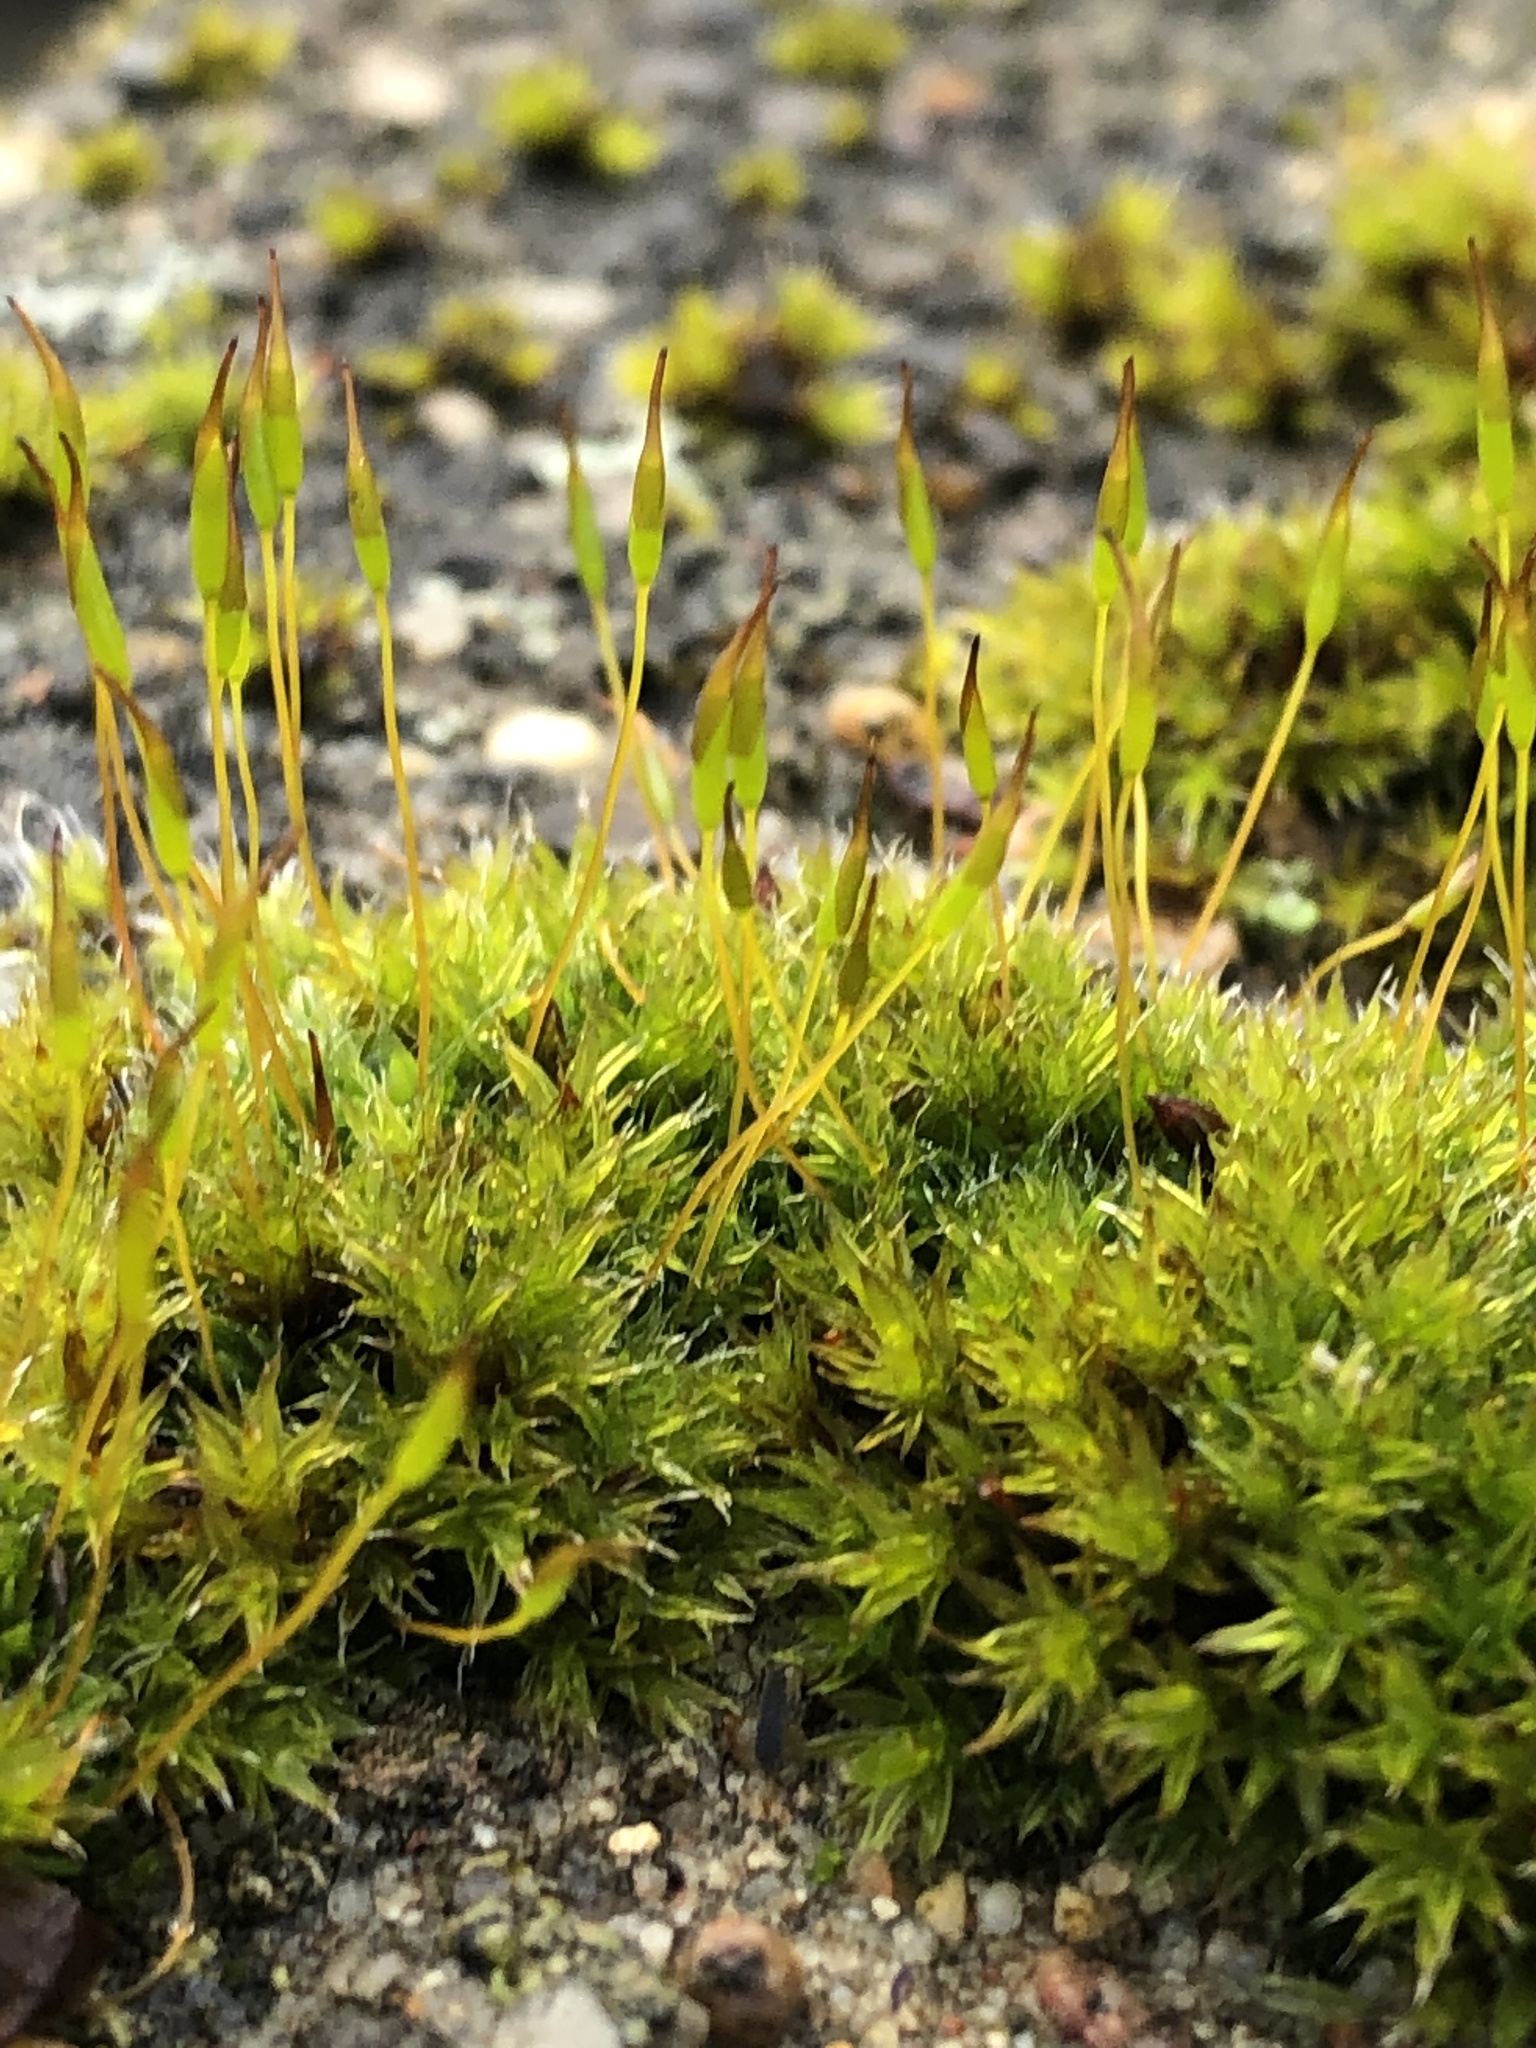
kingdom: Plantae
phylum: Bryophyta
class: Bryopsida
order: Pottiales
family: Pottiaceae
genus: Tortula
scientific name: Tortula muralis
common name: Wall screw-moss
